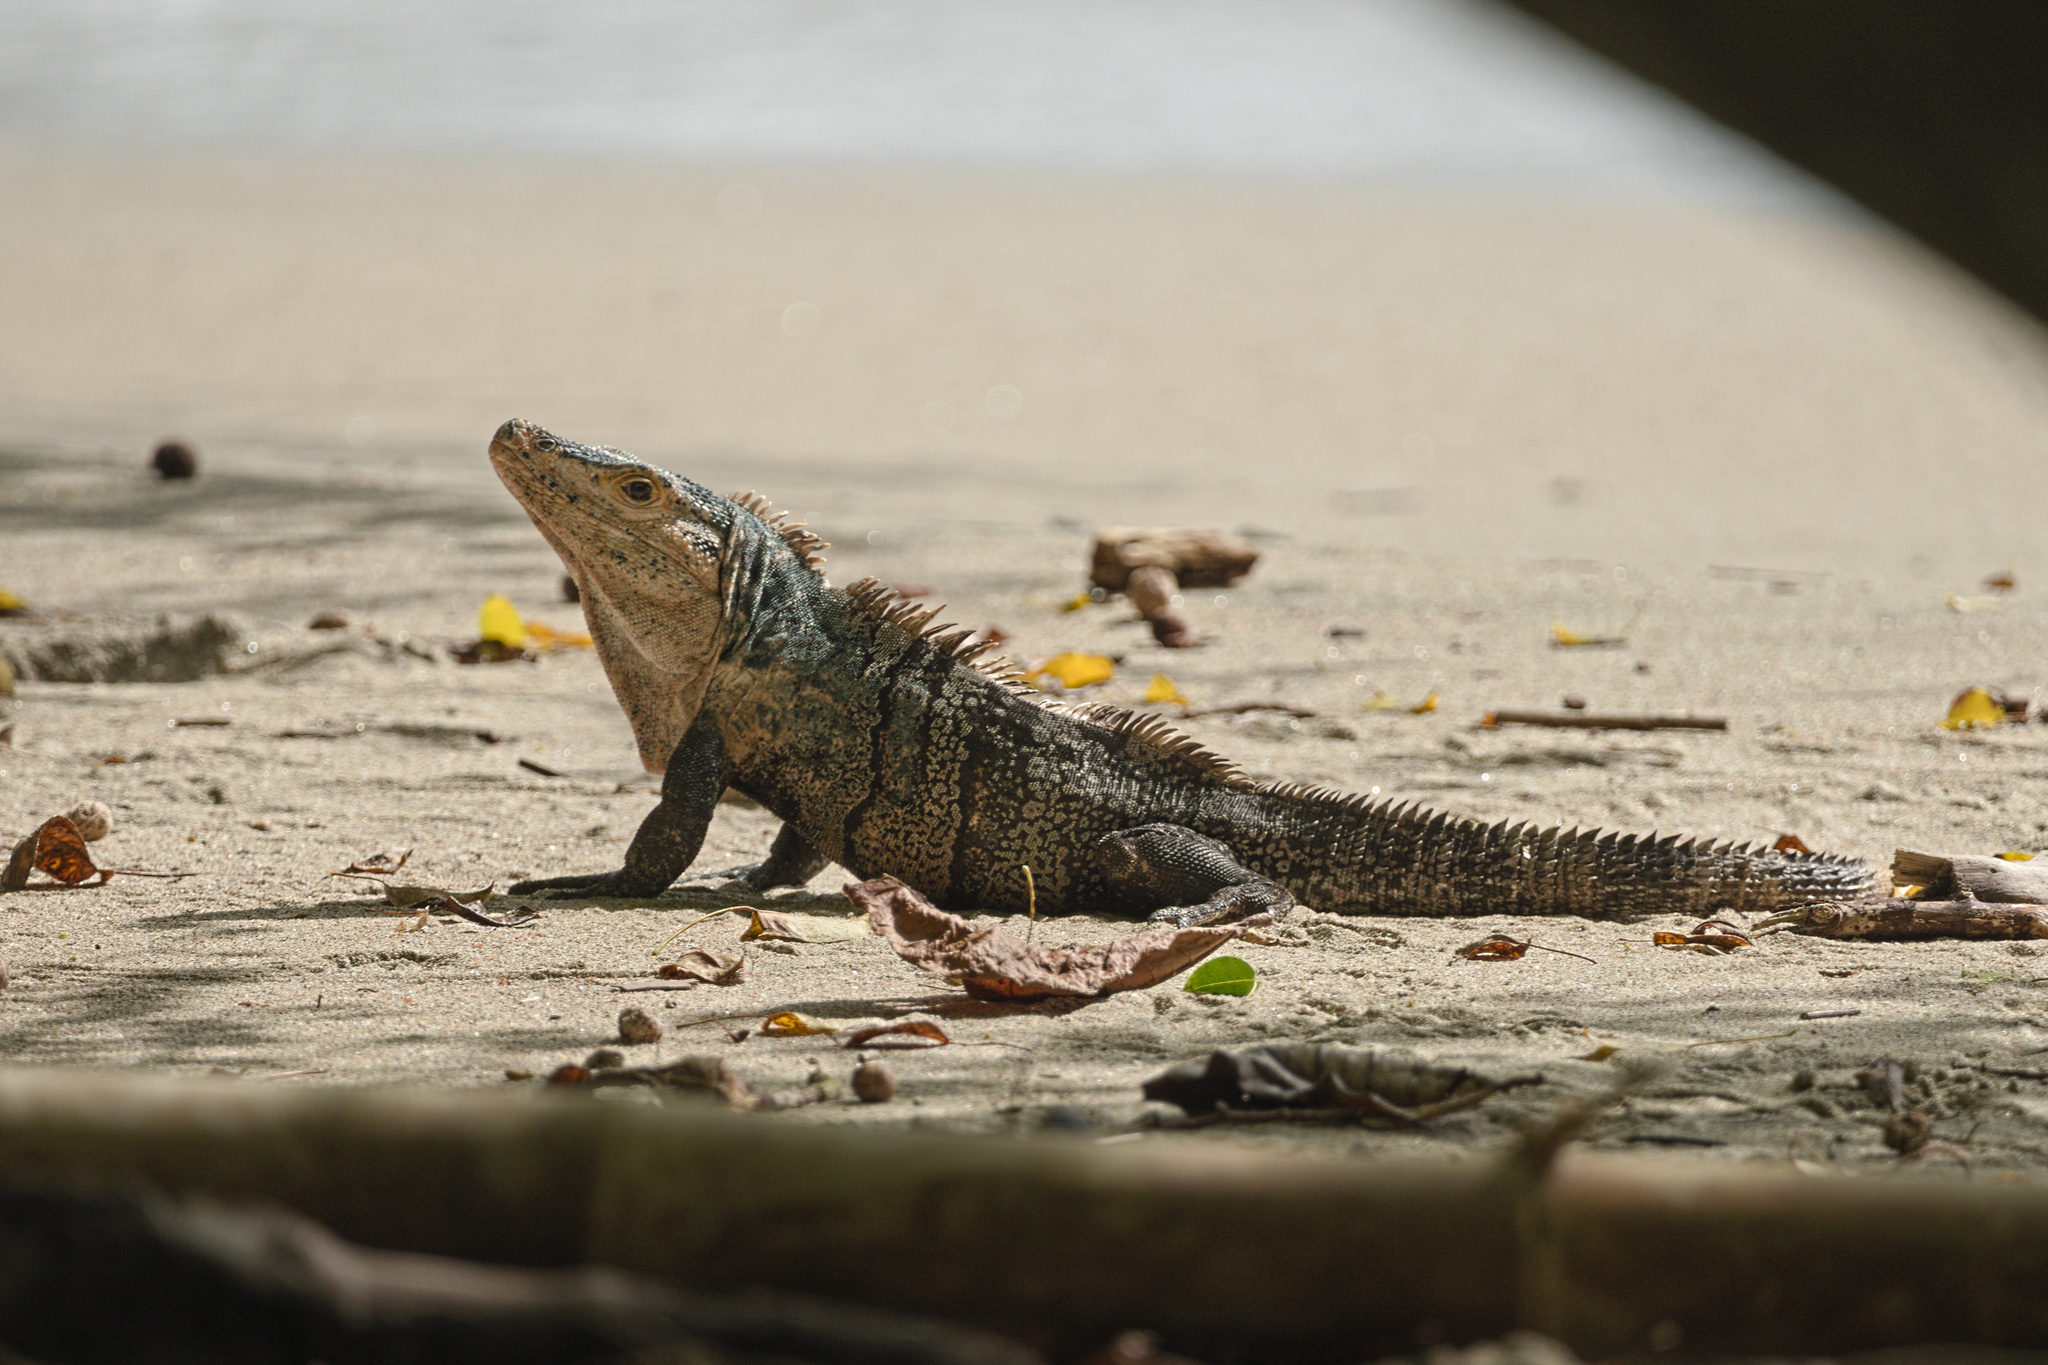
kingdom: Animalia
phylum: Chordata
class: Squamata
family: Iguanidae
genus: Ctenosaura
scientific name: Ctenosaura similis
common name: Black spiny-tailed iguana
